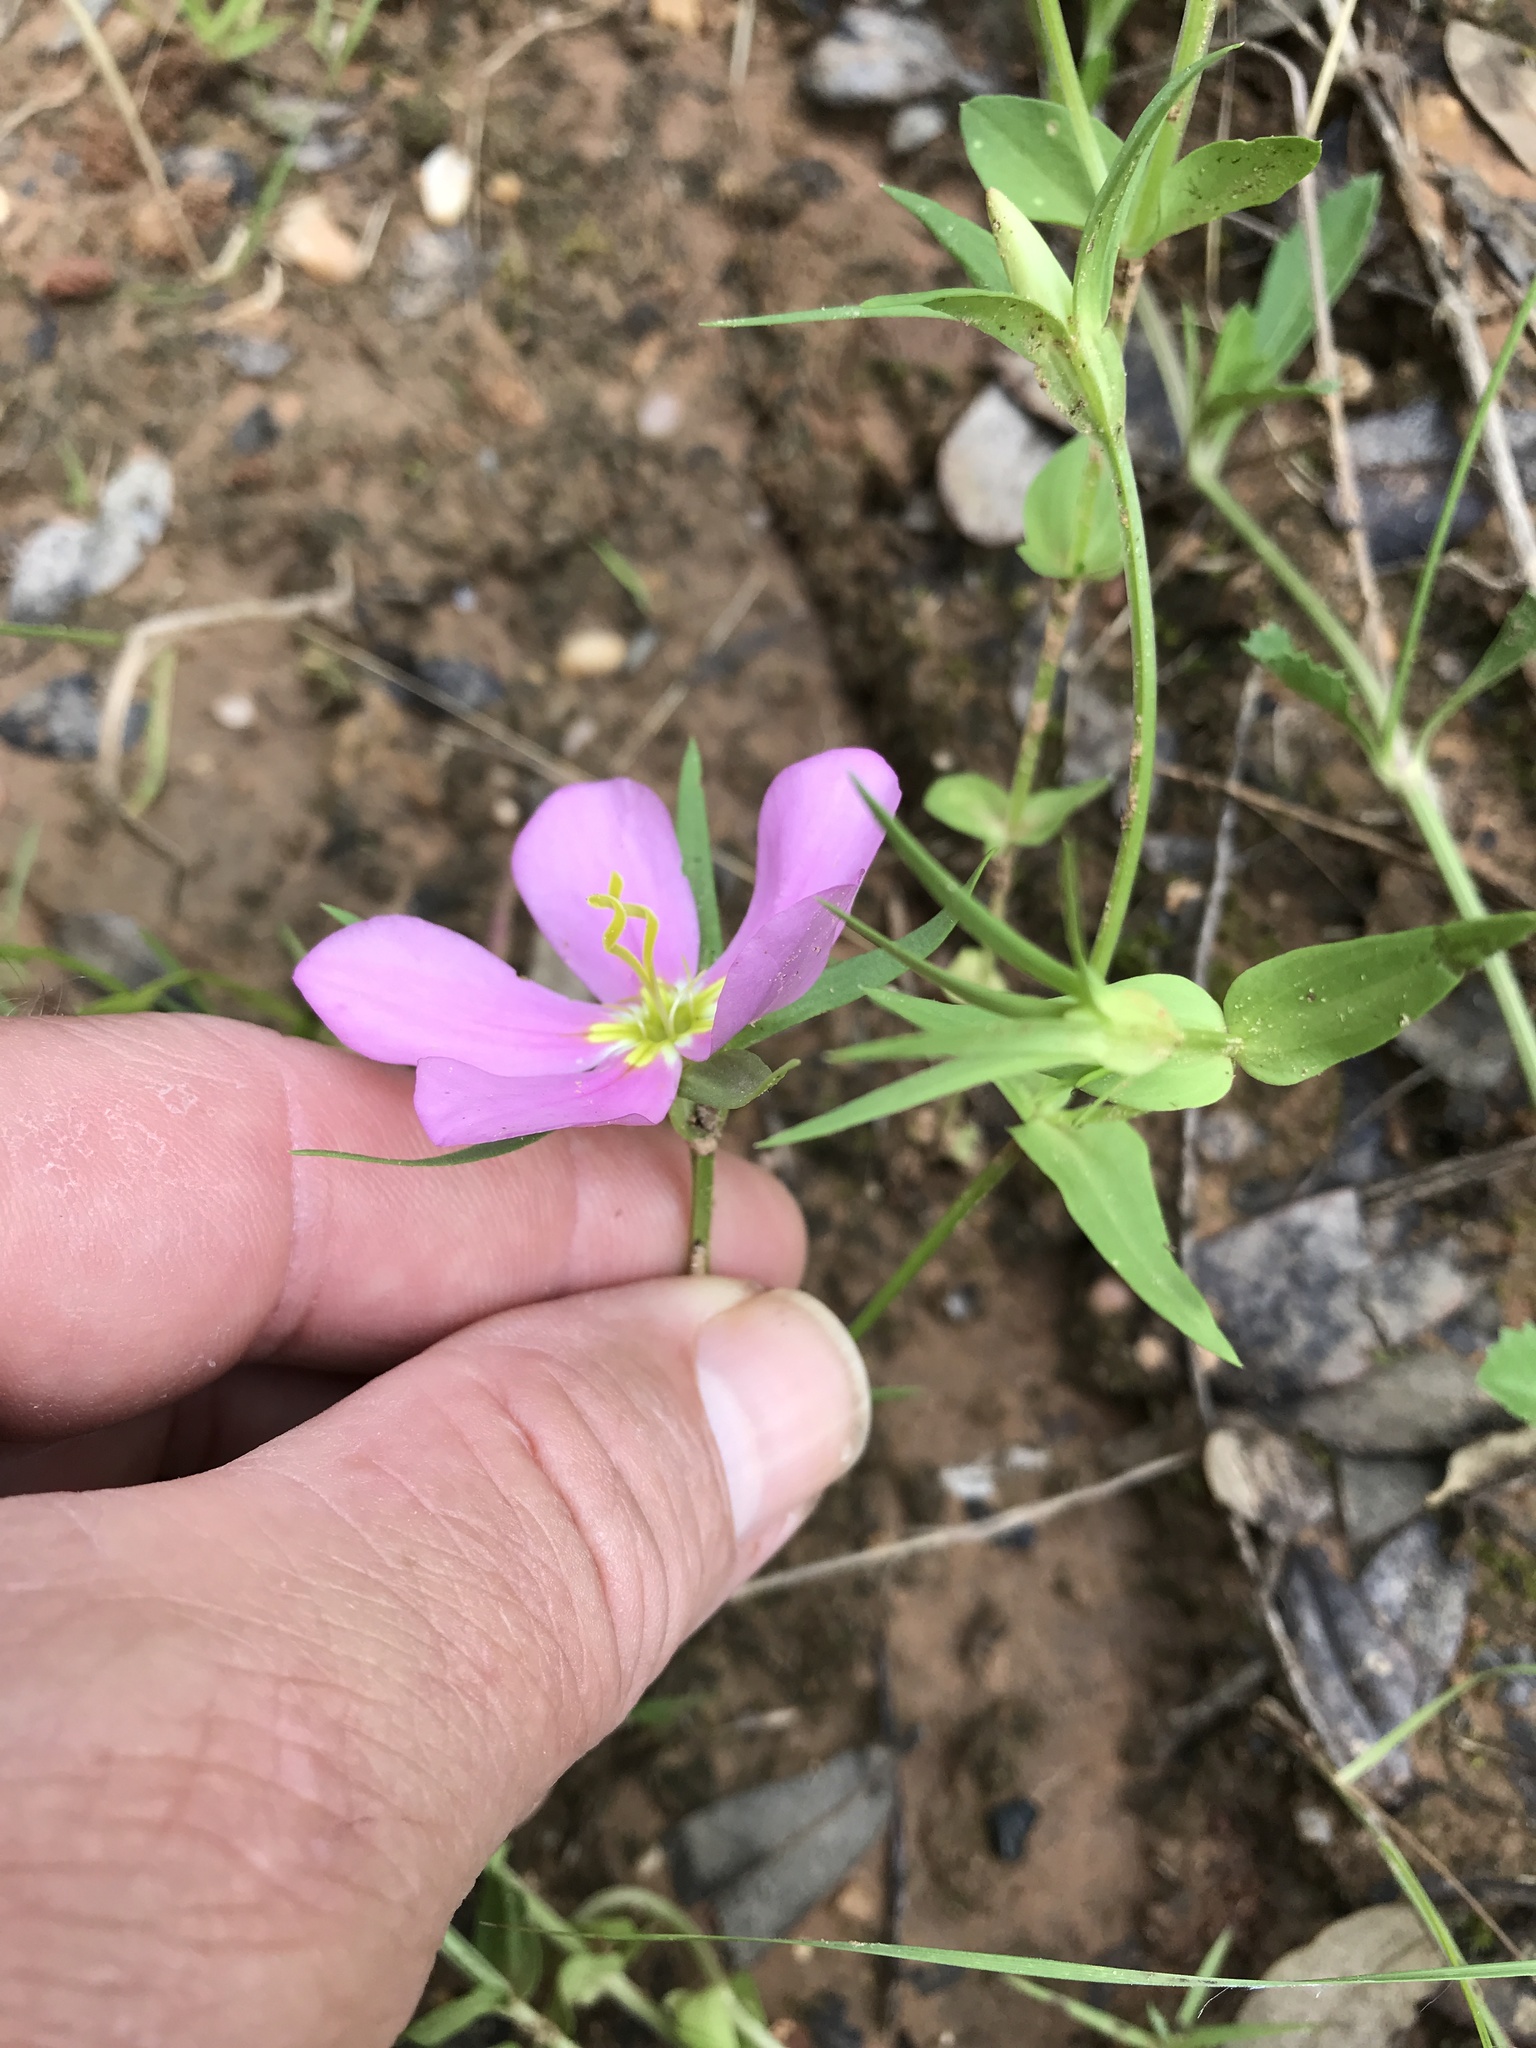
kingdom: Plantae
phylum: Tracheophyta
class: Magnoliopsida
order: Gentianales
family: Gentianaceae
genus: Sabatia
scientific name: Sabatia campestris
